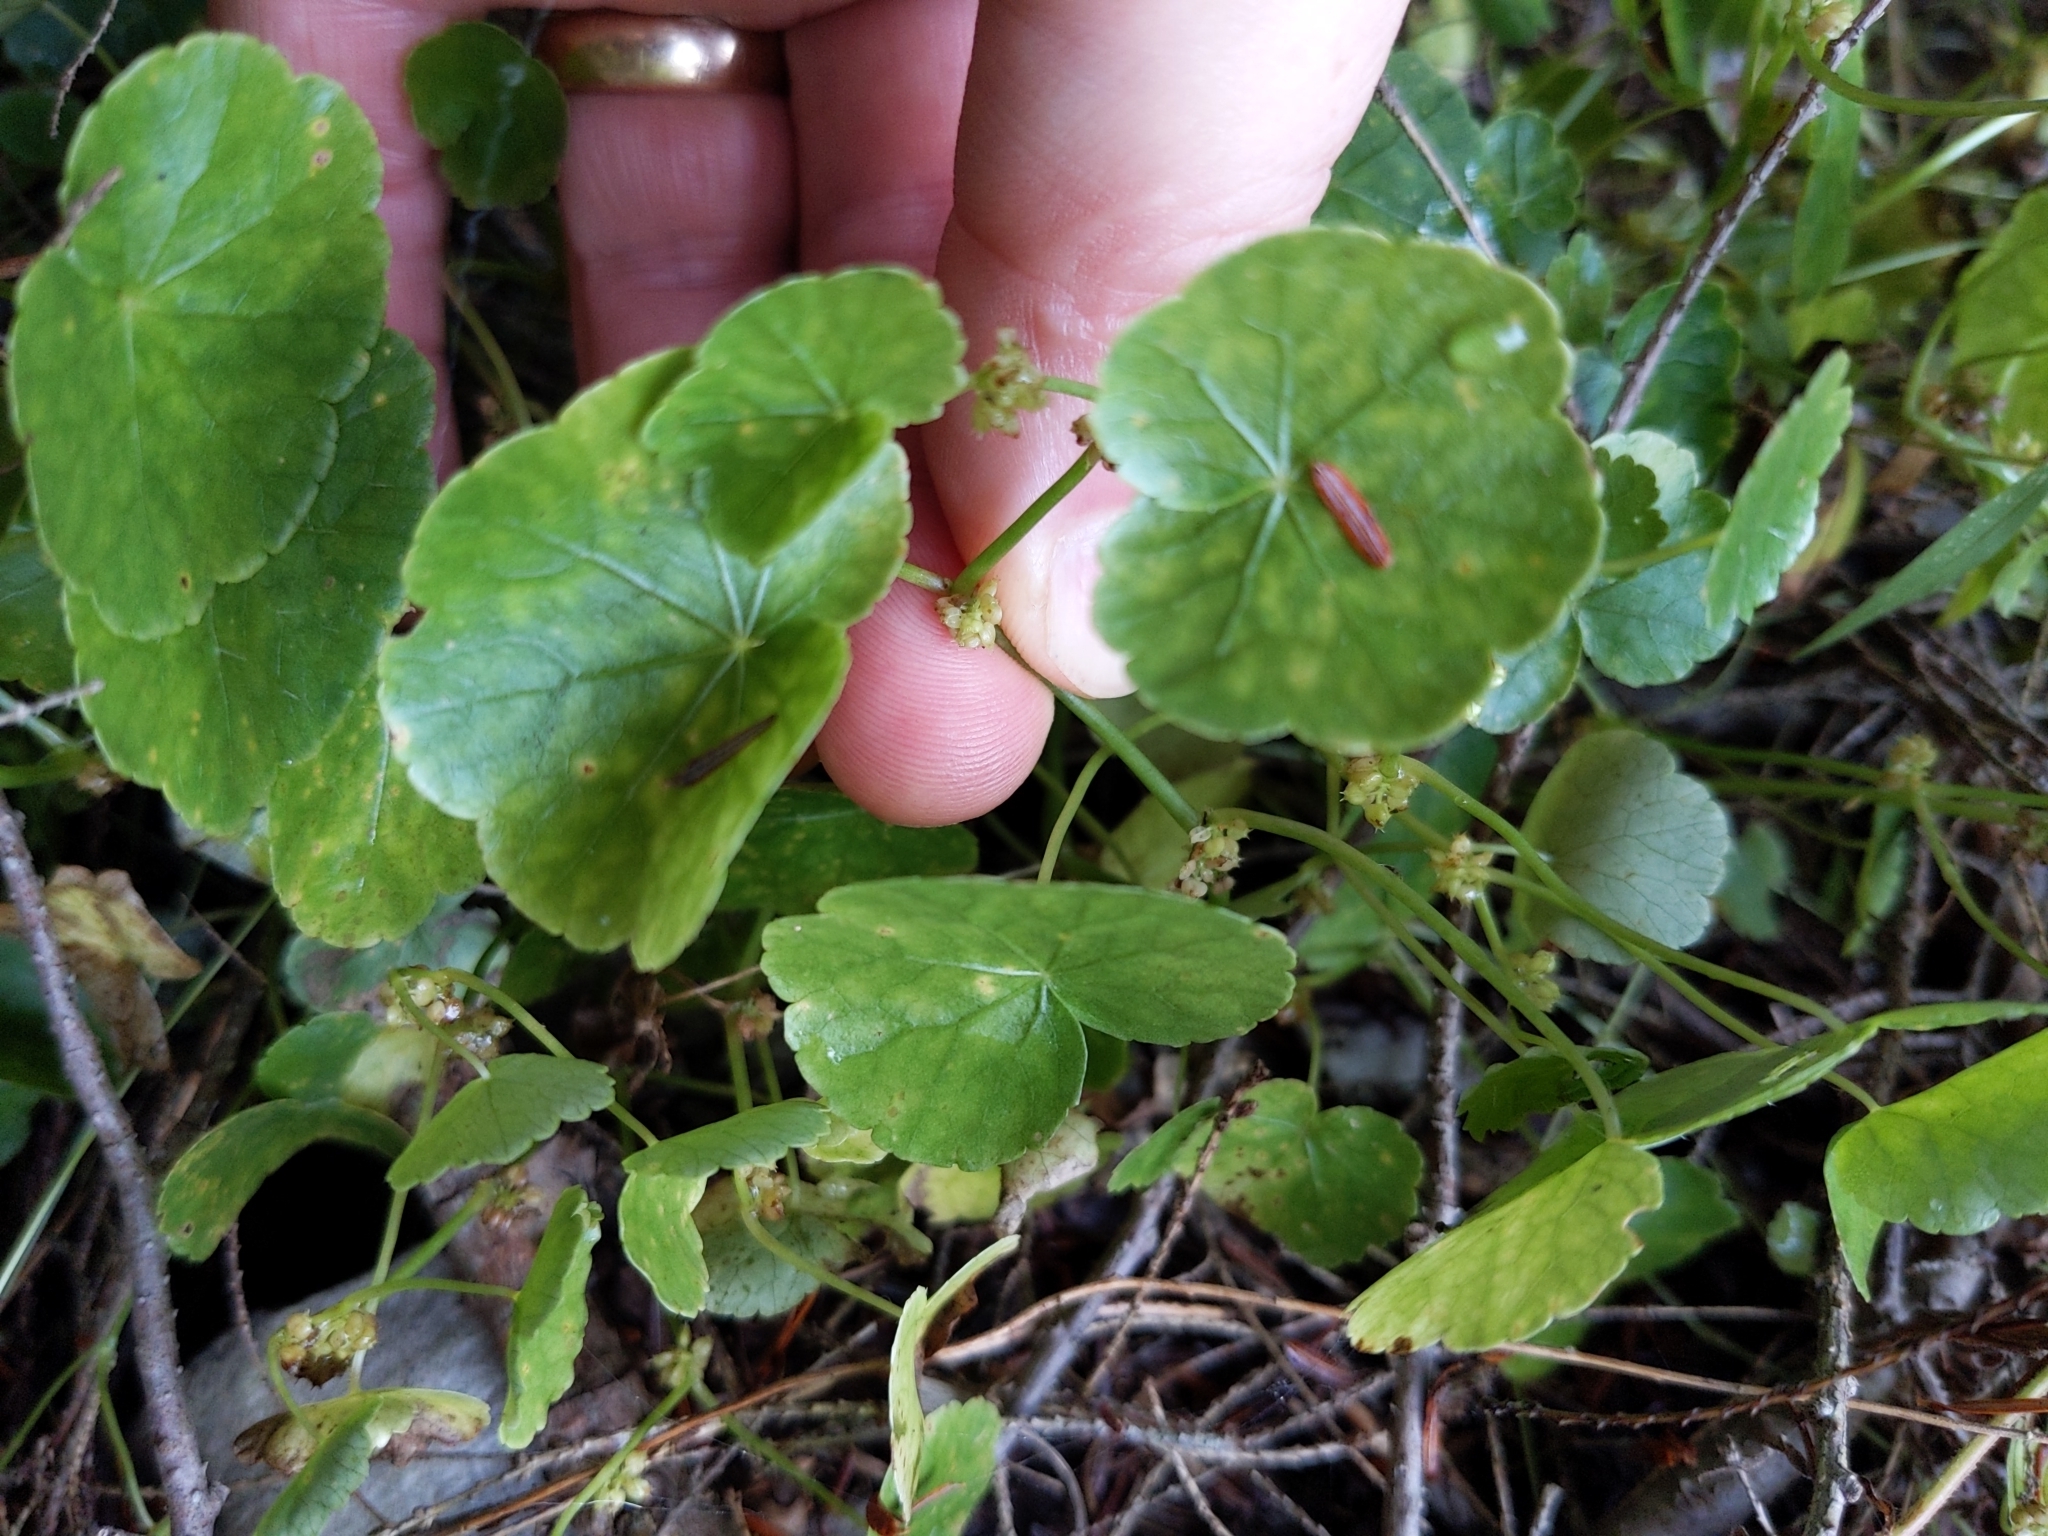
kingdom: Plantae
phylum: Tracheophyta
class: Magnoliopsida
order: Apiales
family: Araliaceae
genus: Hydrocotyle
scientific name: Hydrocotyle americana
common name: American water-pennywort
